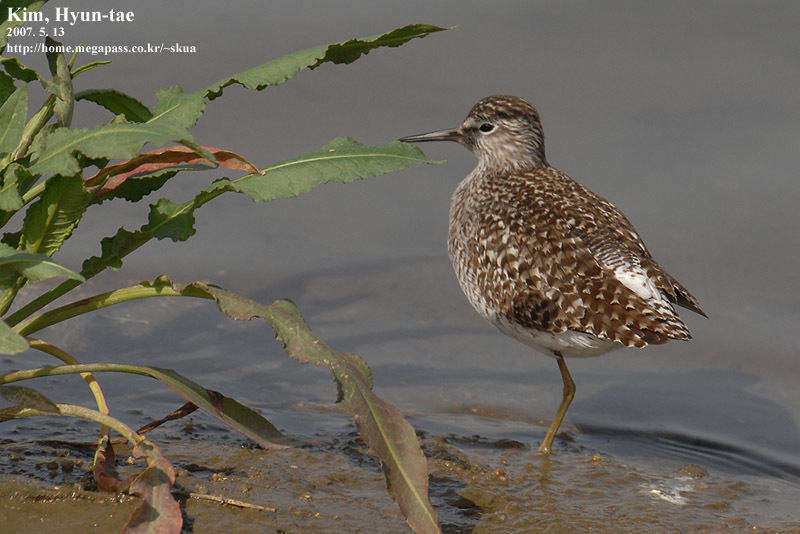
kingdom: Animalia
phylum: Chordata
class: Aves
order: Charadriiformes
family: Scolopacidae
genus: Tringa
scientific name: Tringa glareola
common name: Wood sandpiper
